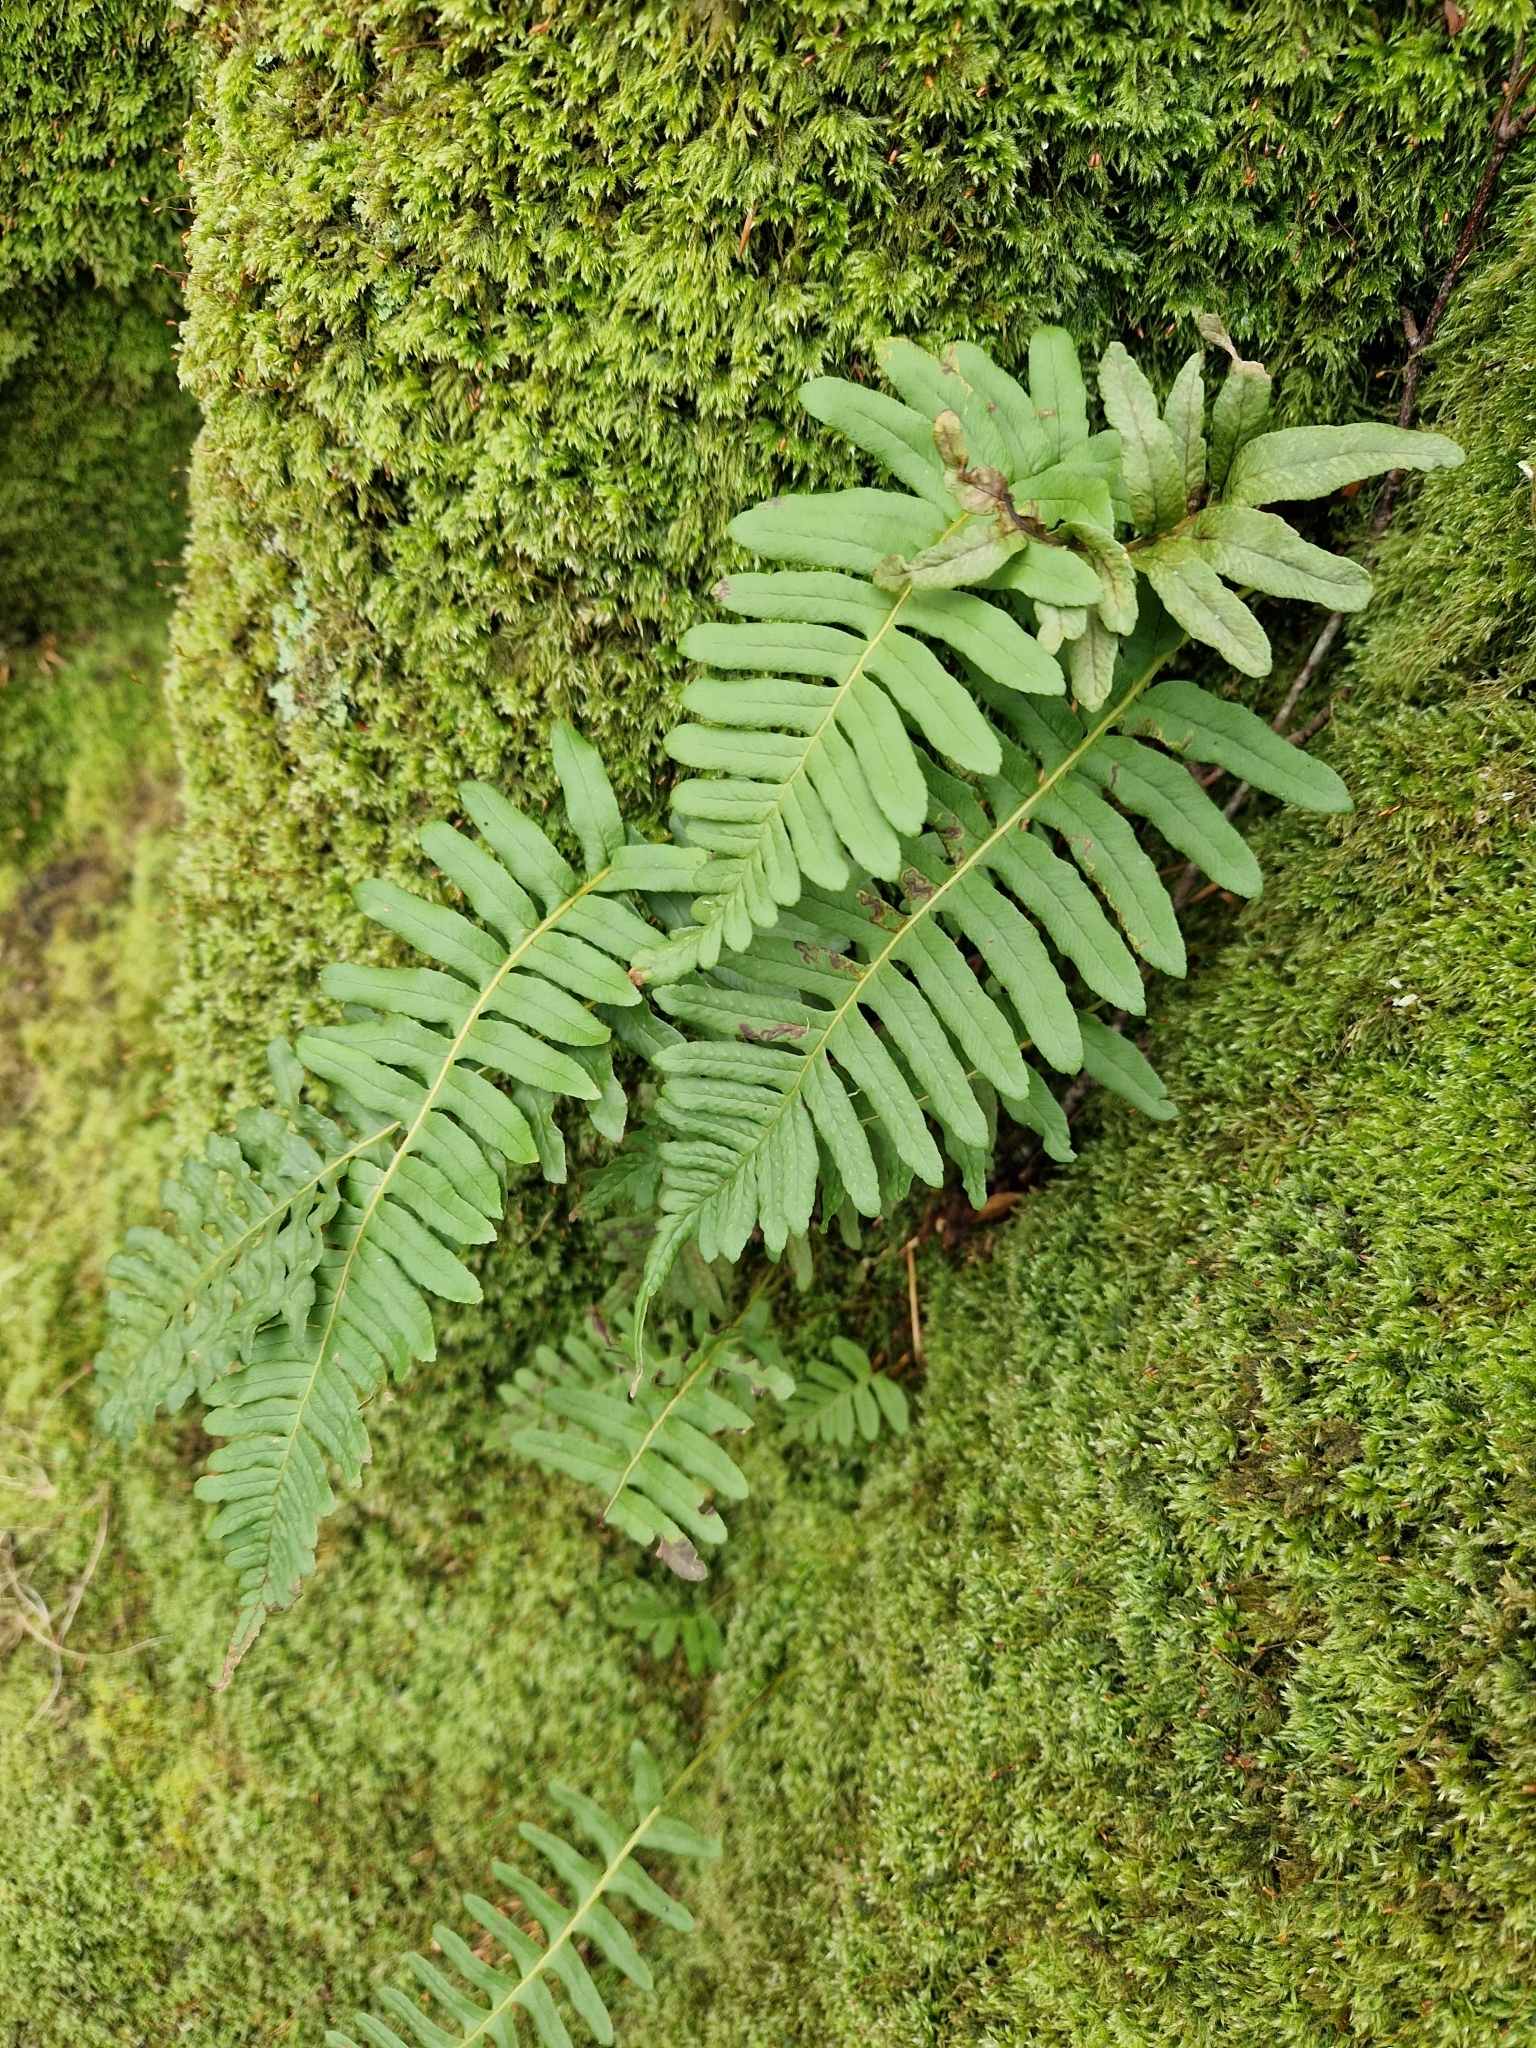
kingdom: Plantae
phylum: Tracheophyta
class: Polypodiopsida
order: Polypodiales
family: Polypodiaceae
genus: Polypodium
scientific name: Polypodium vulgare
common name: Common polypody
